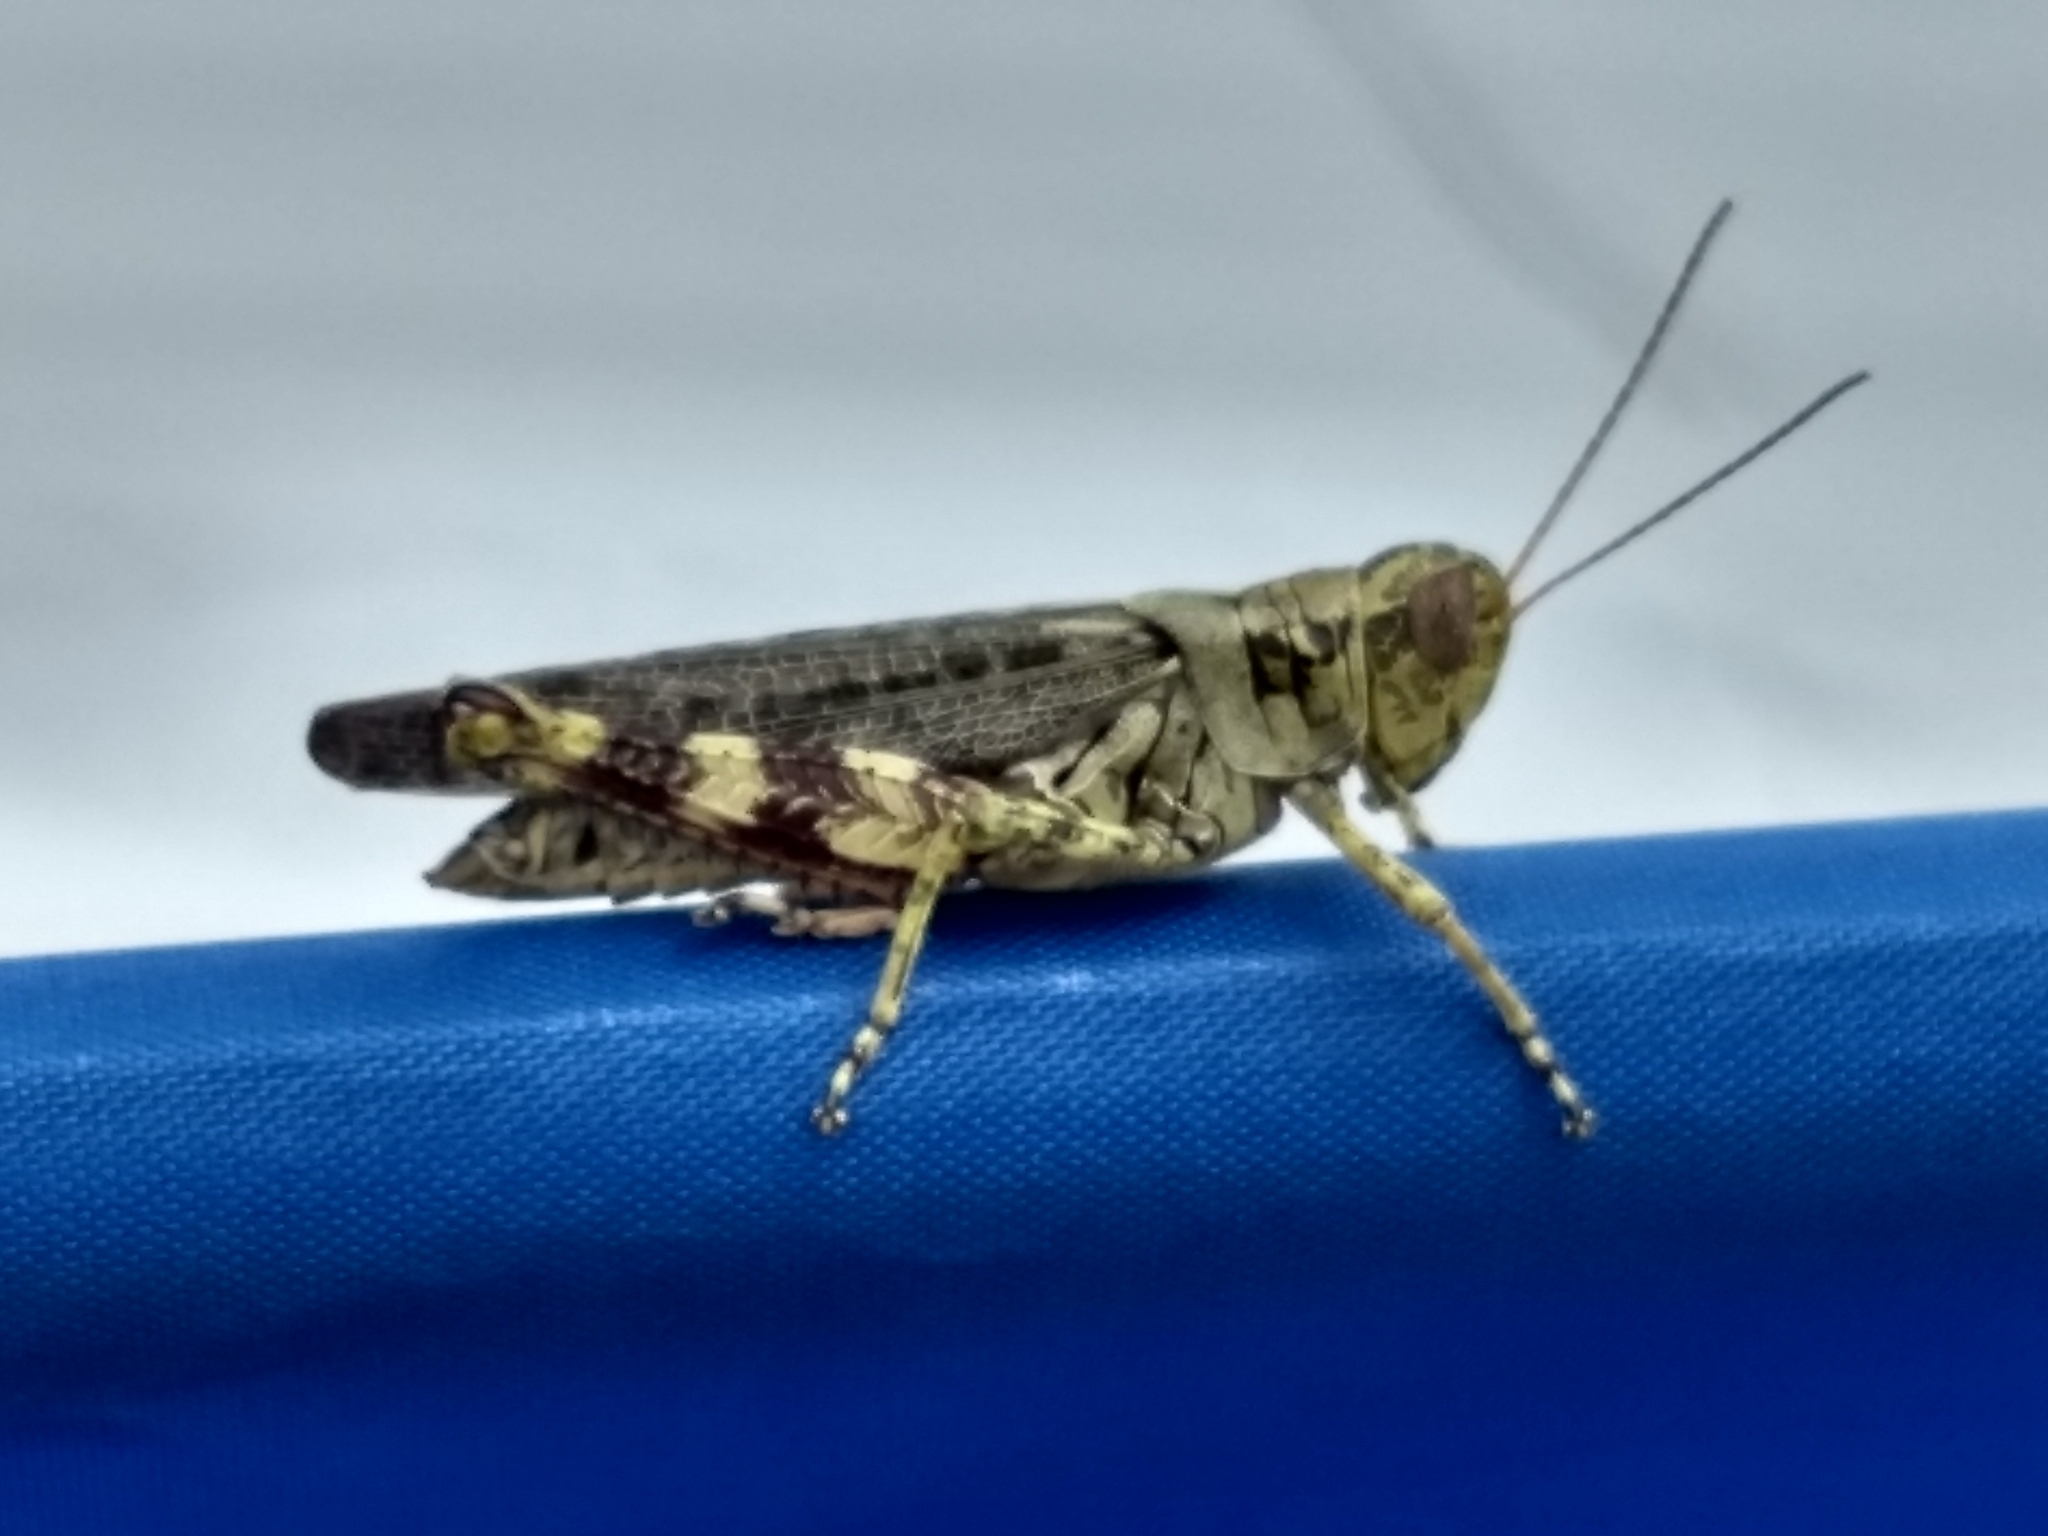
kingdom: Animalia
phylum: Arthropoda
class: Insecta
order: Orthoptera
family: Acrididae
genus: Melanoplus
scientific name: Melanoplus punctulatus
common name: Pine-tree spur-throat grasshopper
